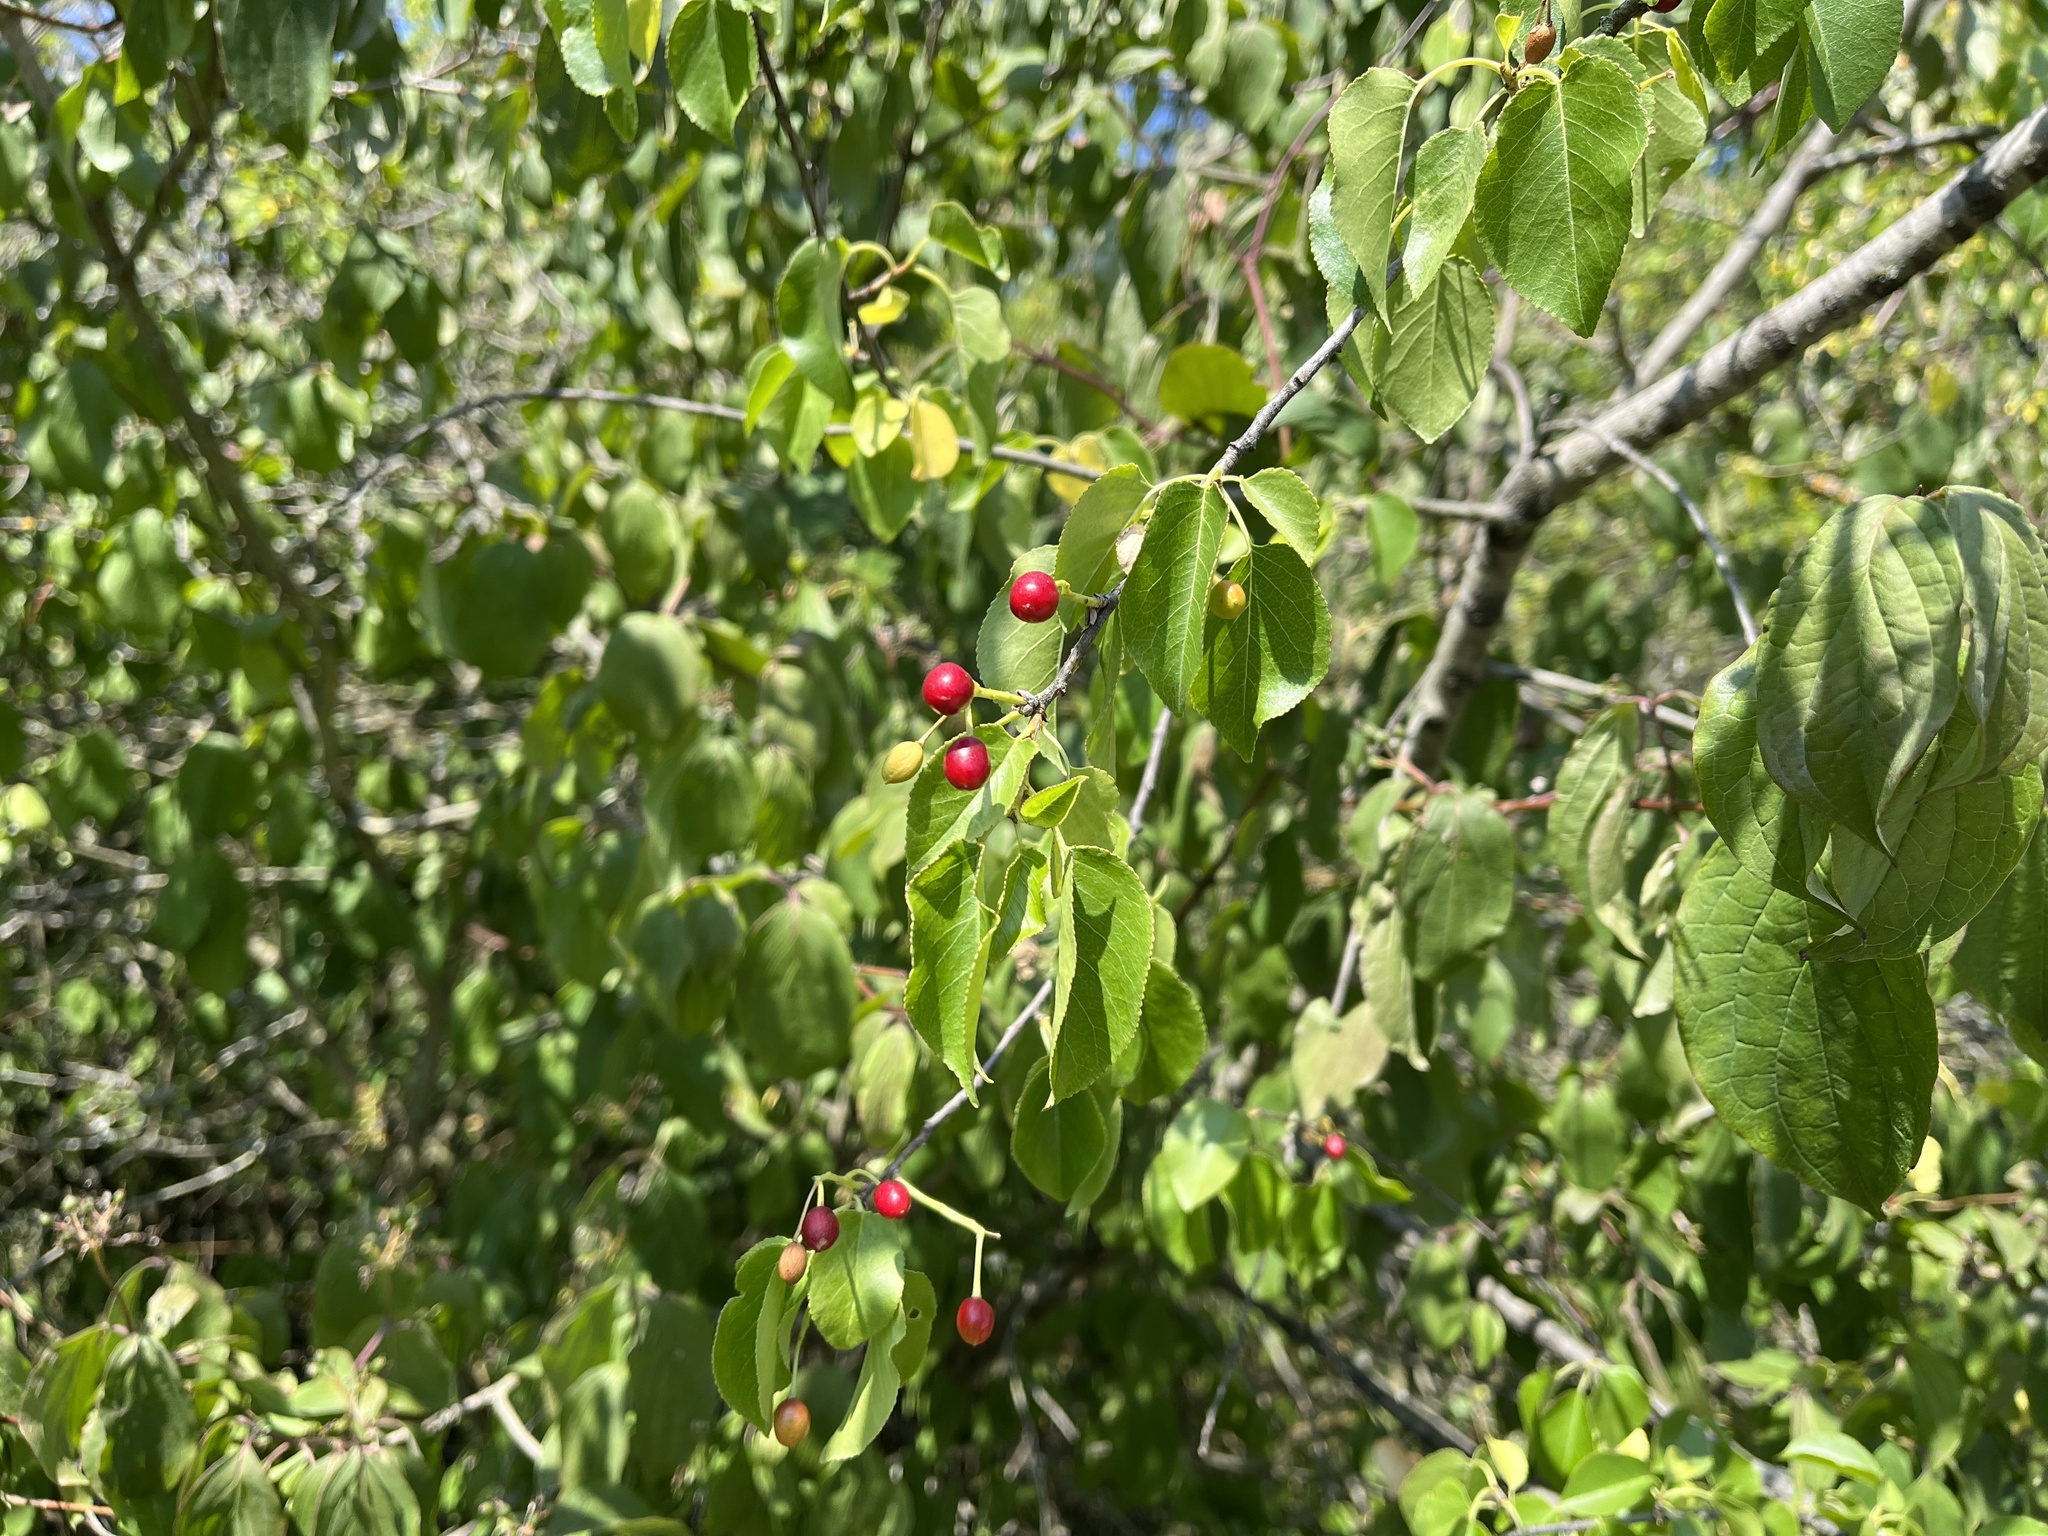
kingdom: Plantae
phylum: Tracheophyta
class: Magnoliopsida
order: Rosales
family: Rosaceae
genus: Prunus
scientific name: Prunus mahaleb
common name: Mahaleb cherry
